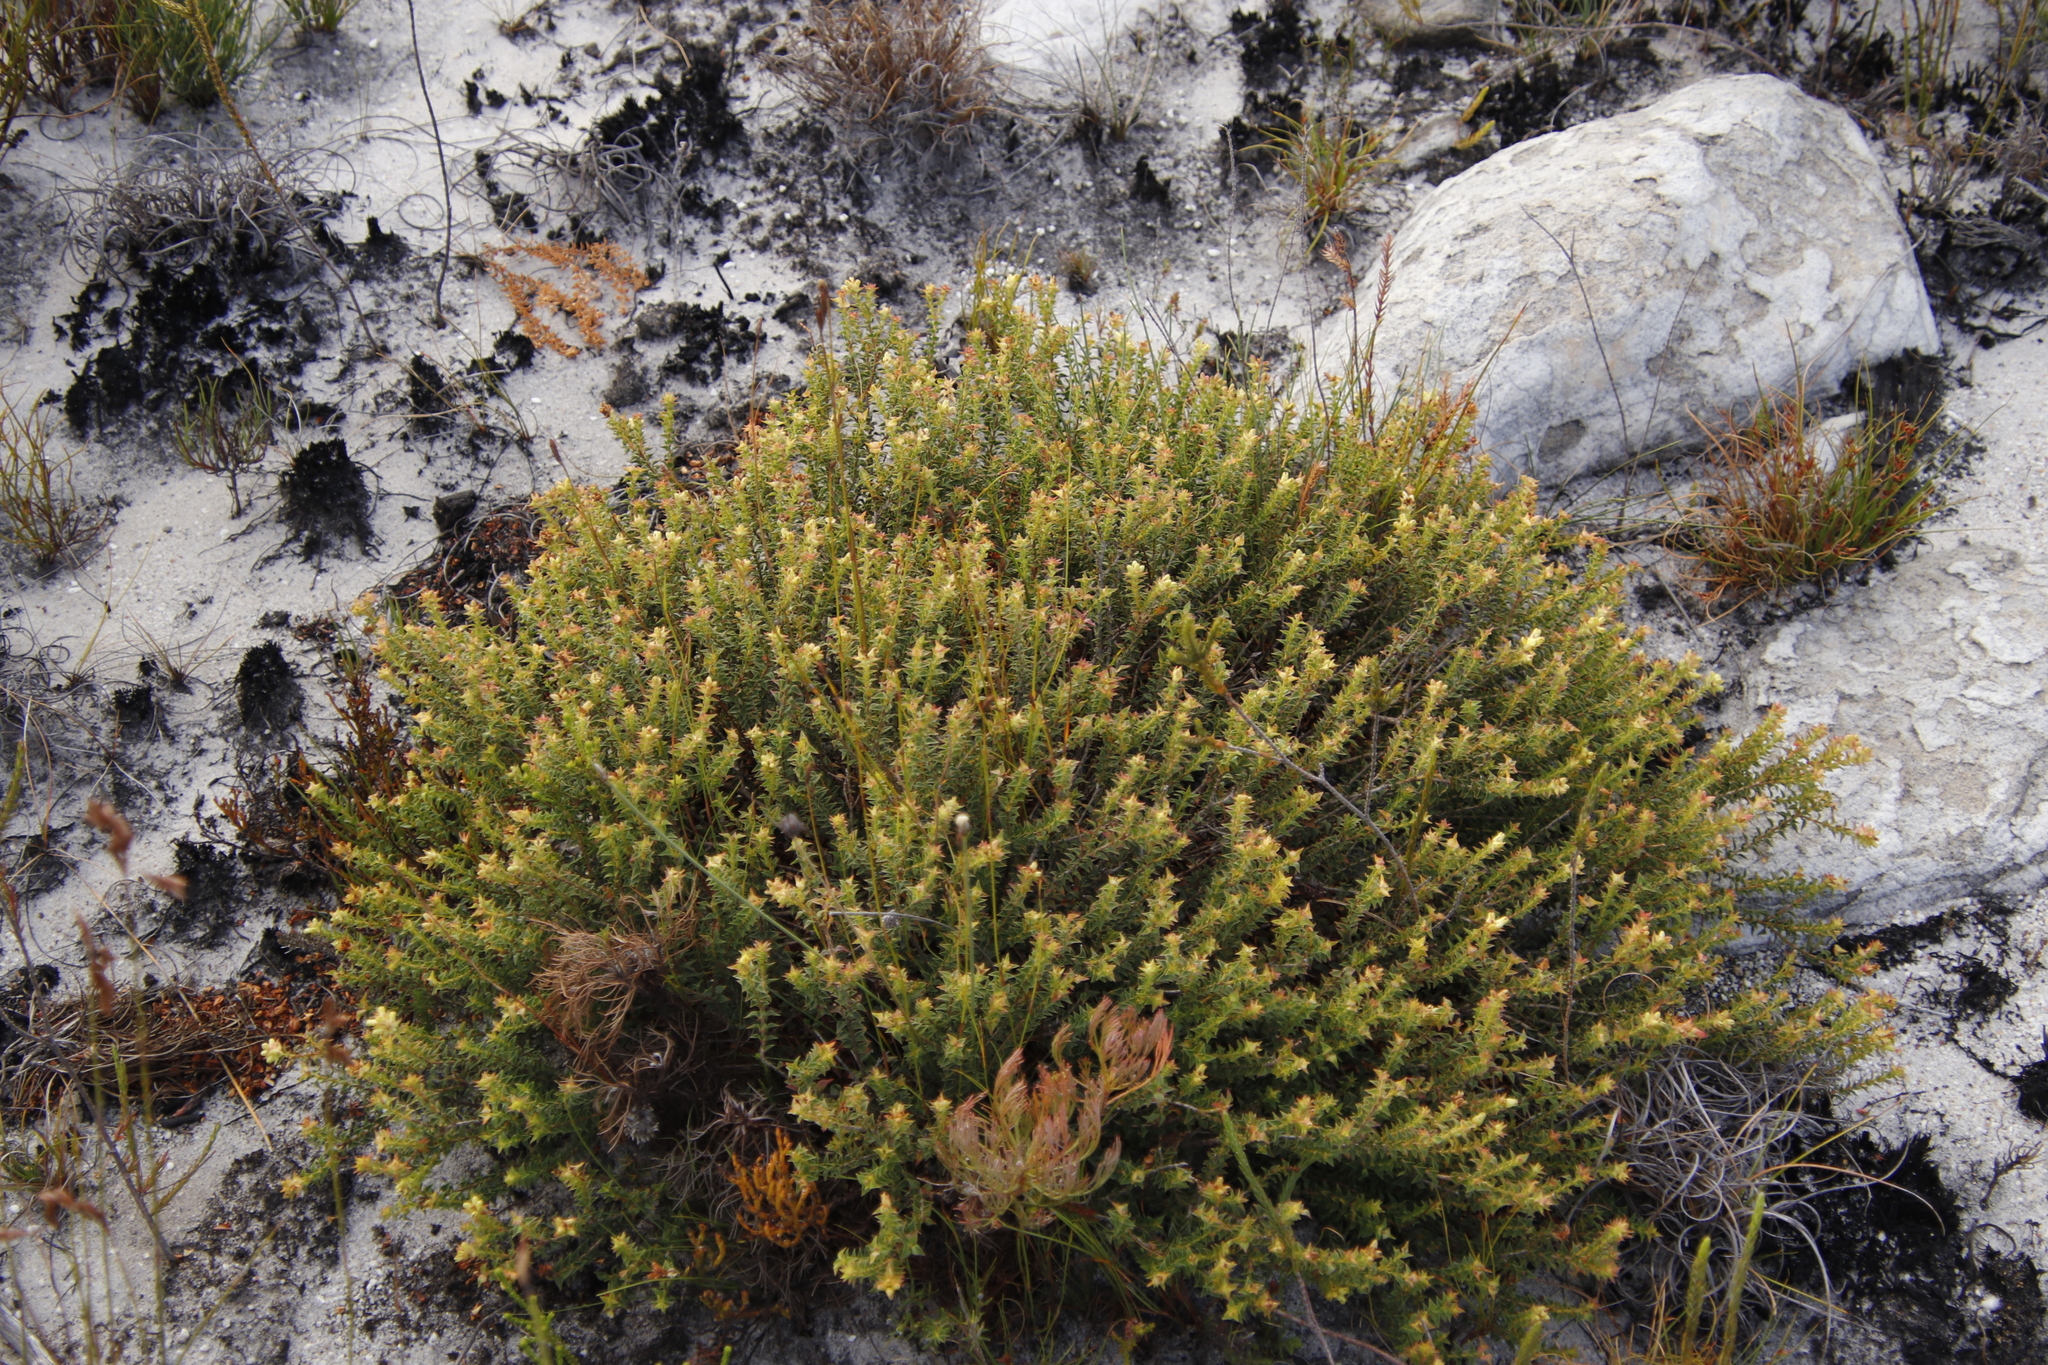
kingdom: Plantae
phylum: Tracheophyta
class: Magnoliopsida
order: Myrtales
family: Penaeaceae
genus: Penaea
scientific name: Penaea mucronata
